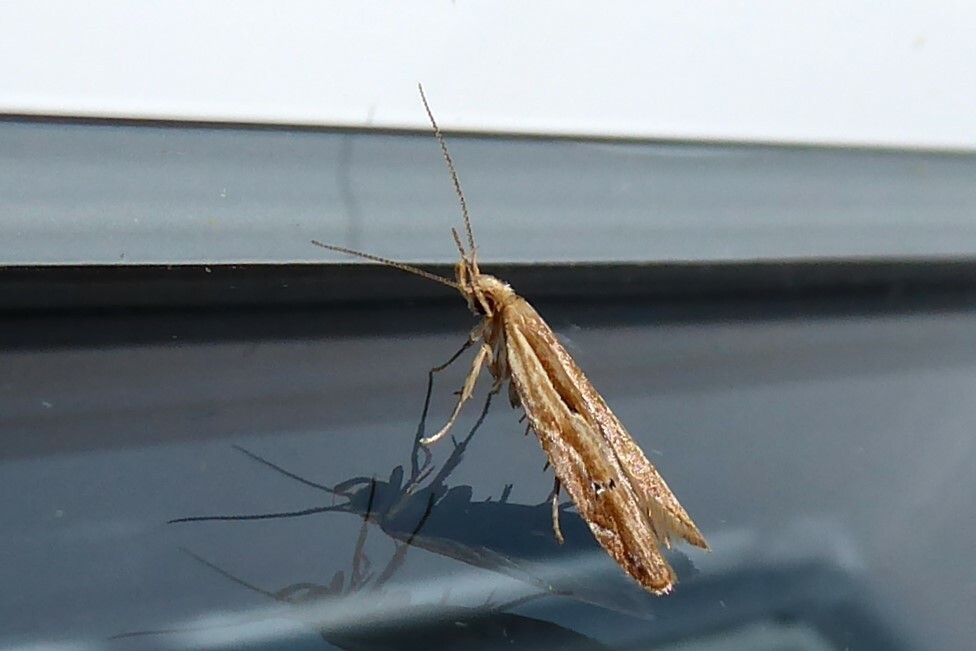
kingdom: Animalia
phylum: Arthropoda
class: Insecta
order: Lepidoptera
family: Depressariidae
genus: Eutorna
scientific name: Eutorna symmorpha
